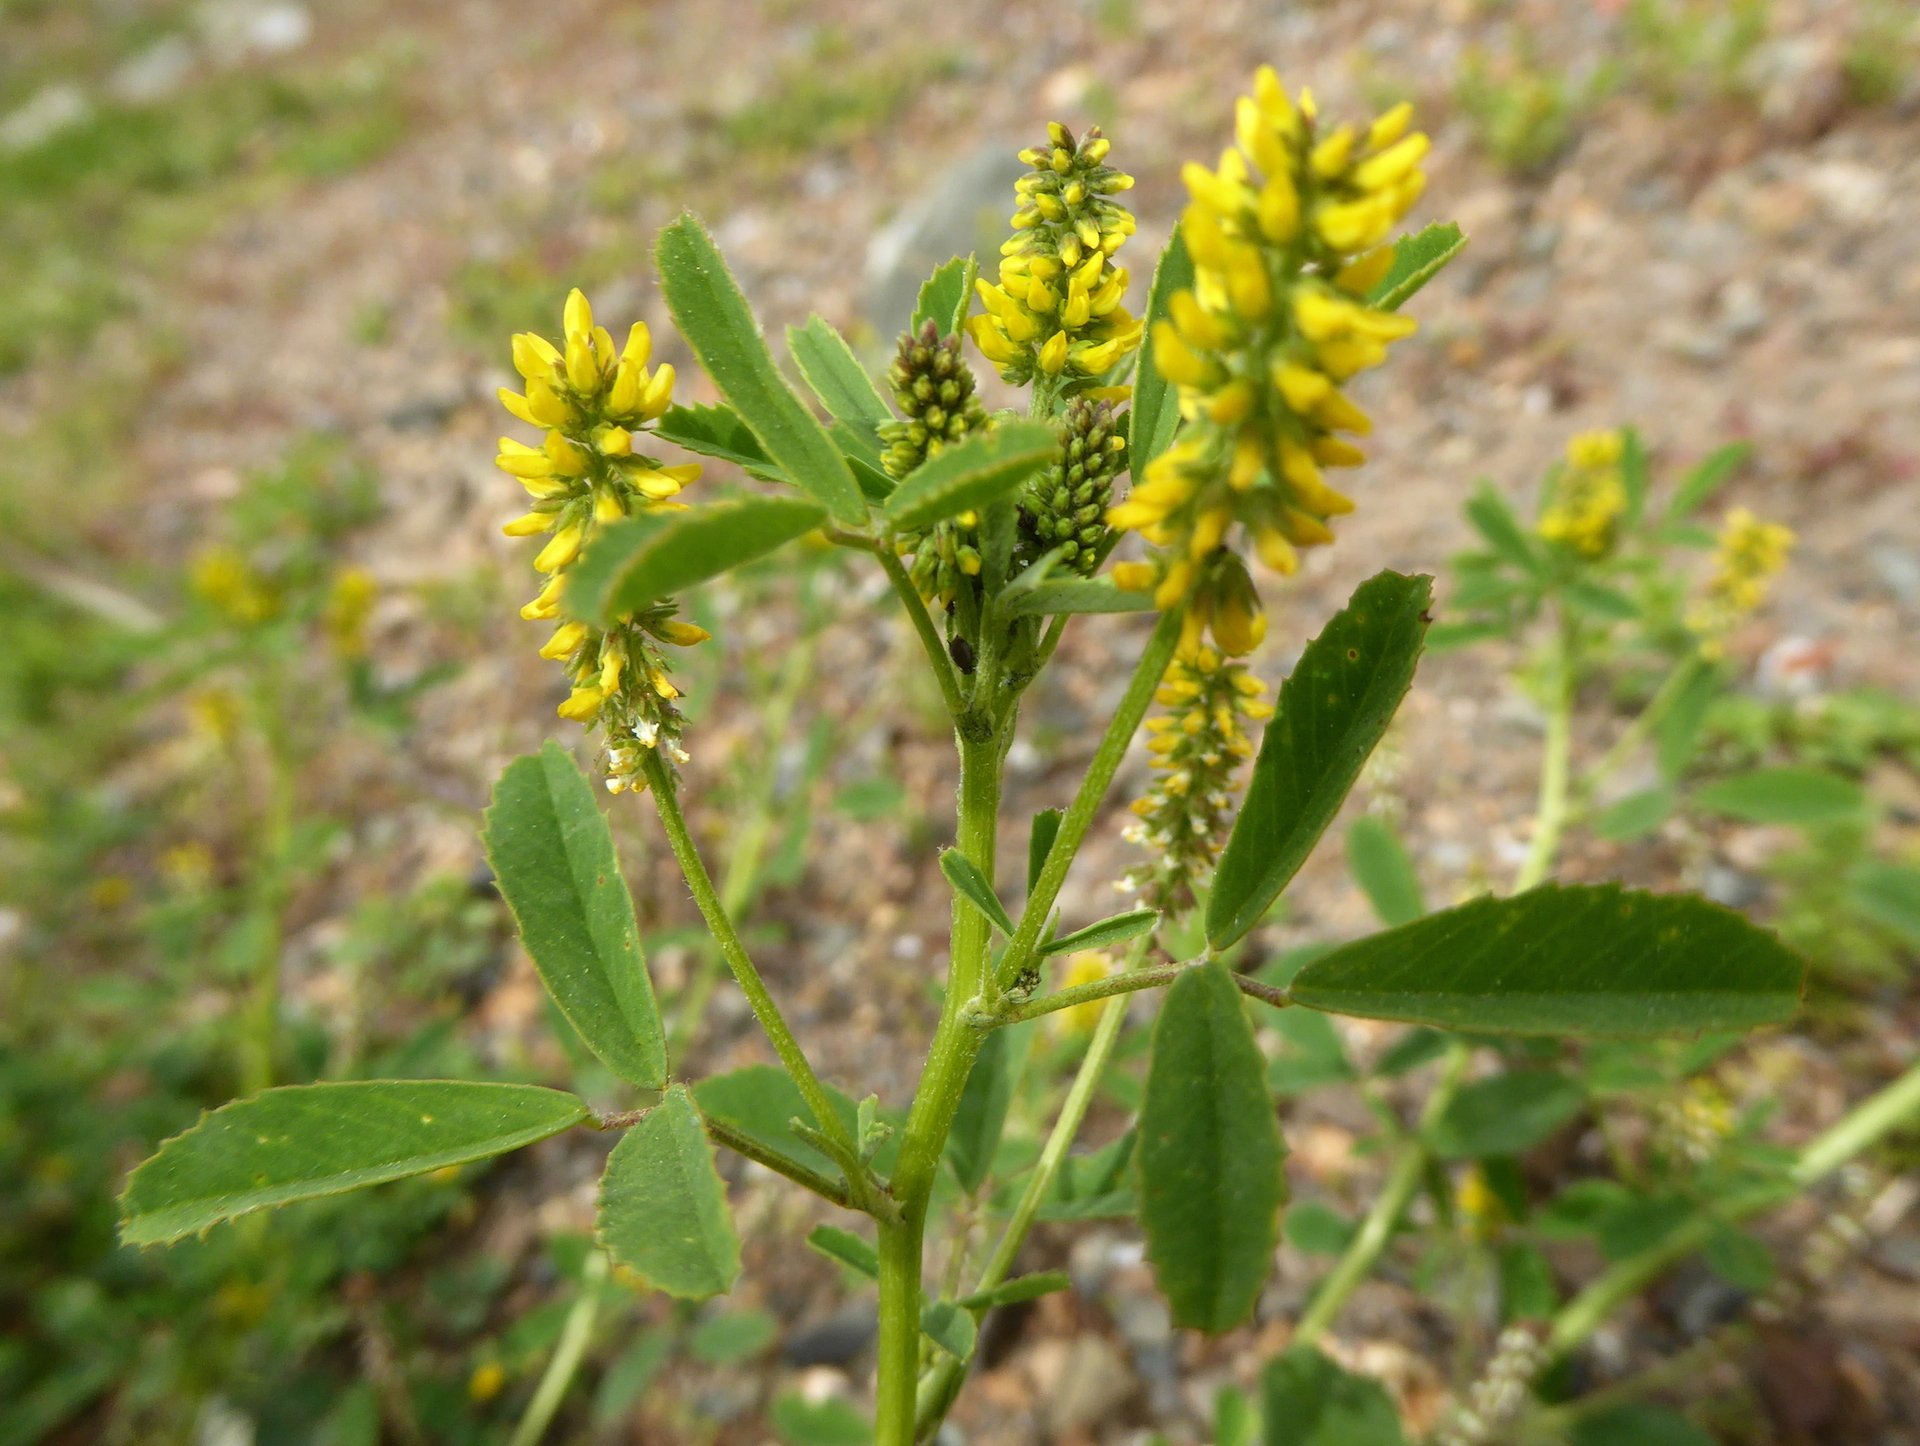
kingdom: Plantae
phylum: Tracheophyta
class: Magnoliopsida
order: Fabales
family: Fabaceae
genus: Melilotus
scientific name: Melilotus indicus
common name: Small melilot
